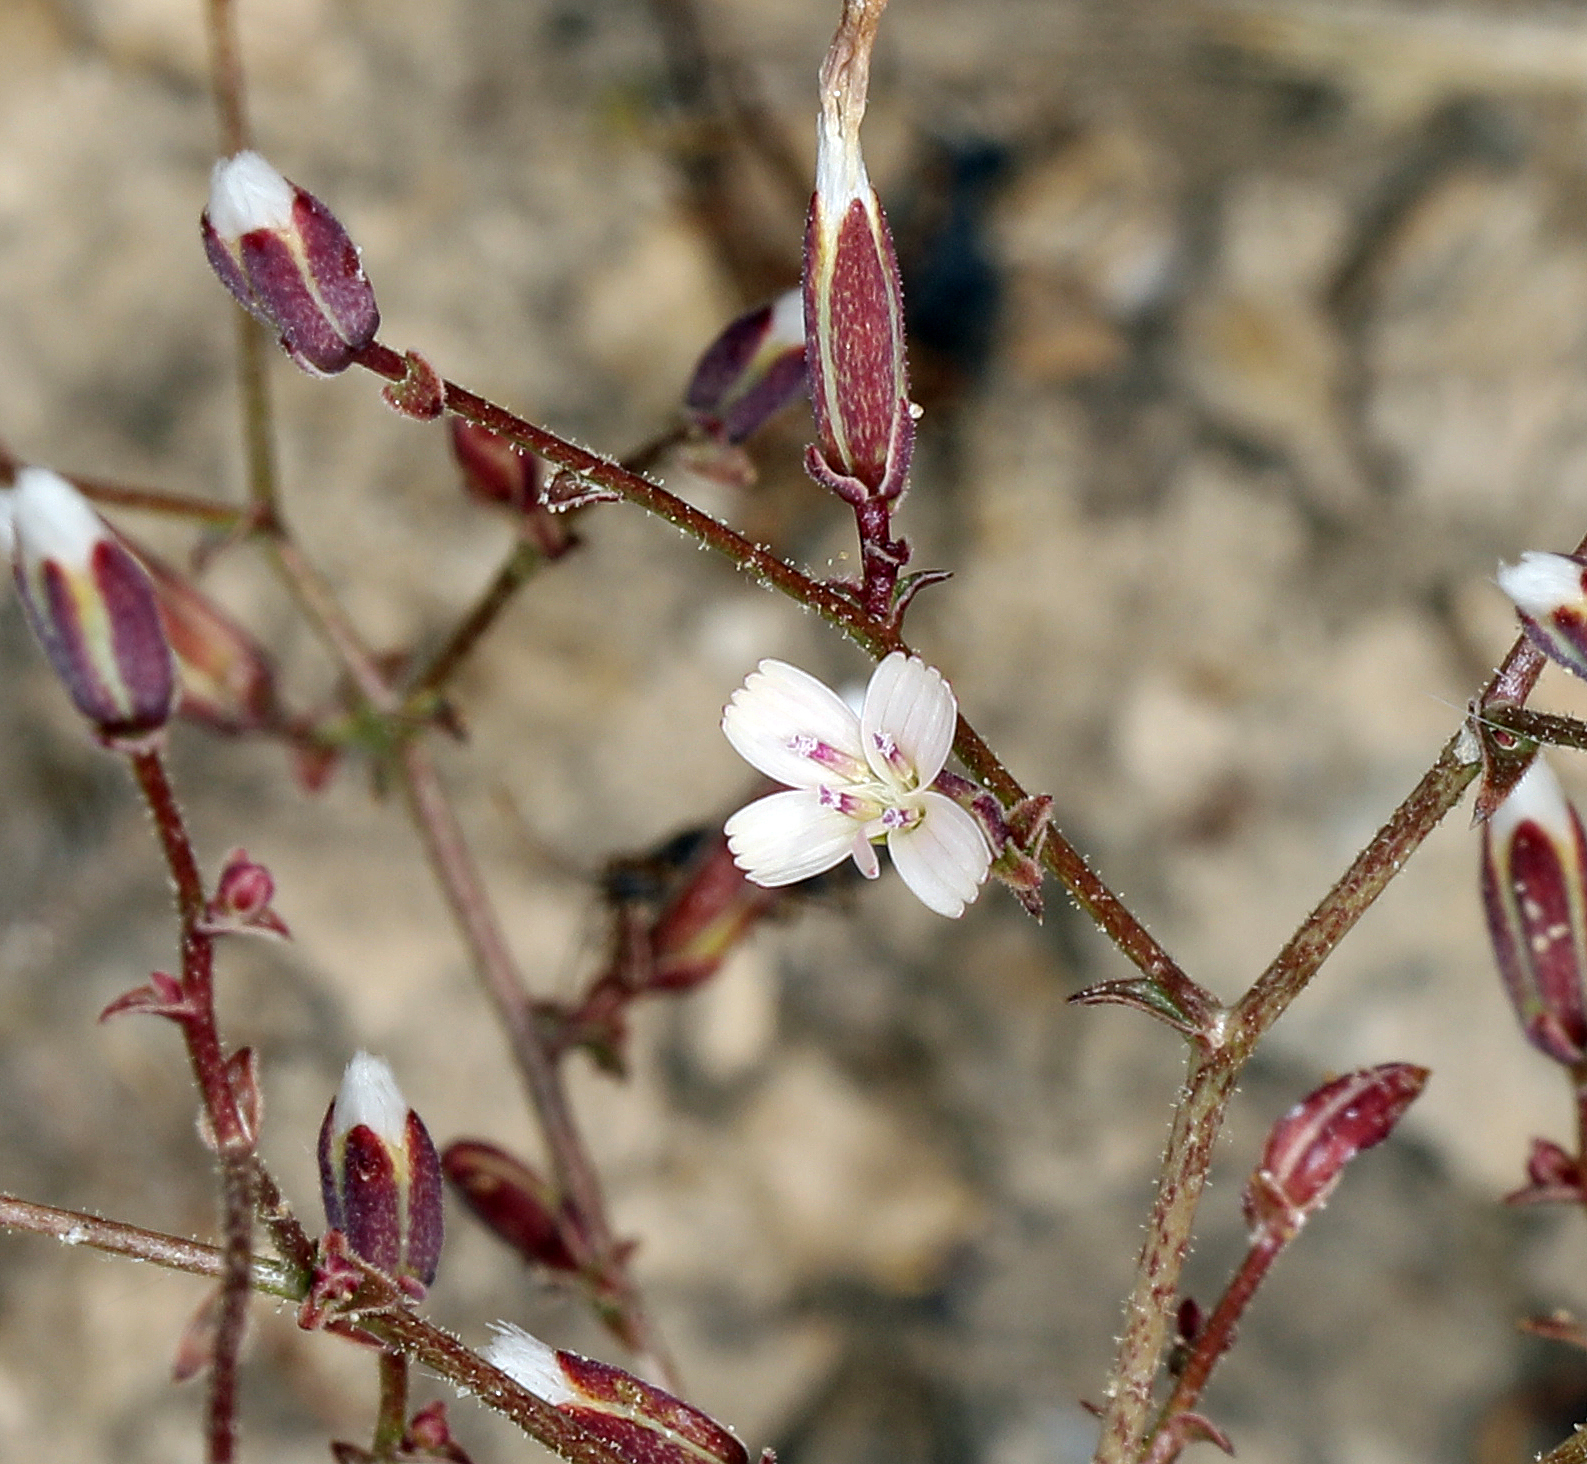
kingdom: Plantae
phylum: Tracheophyta
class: Magnoliopsida
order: Asterales
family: Asteraceae
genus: Lygodesmia
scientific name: Lygodesmia exigua
